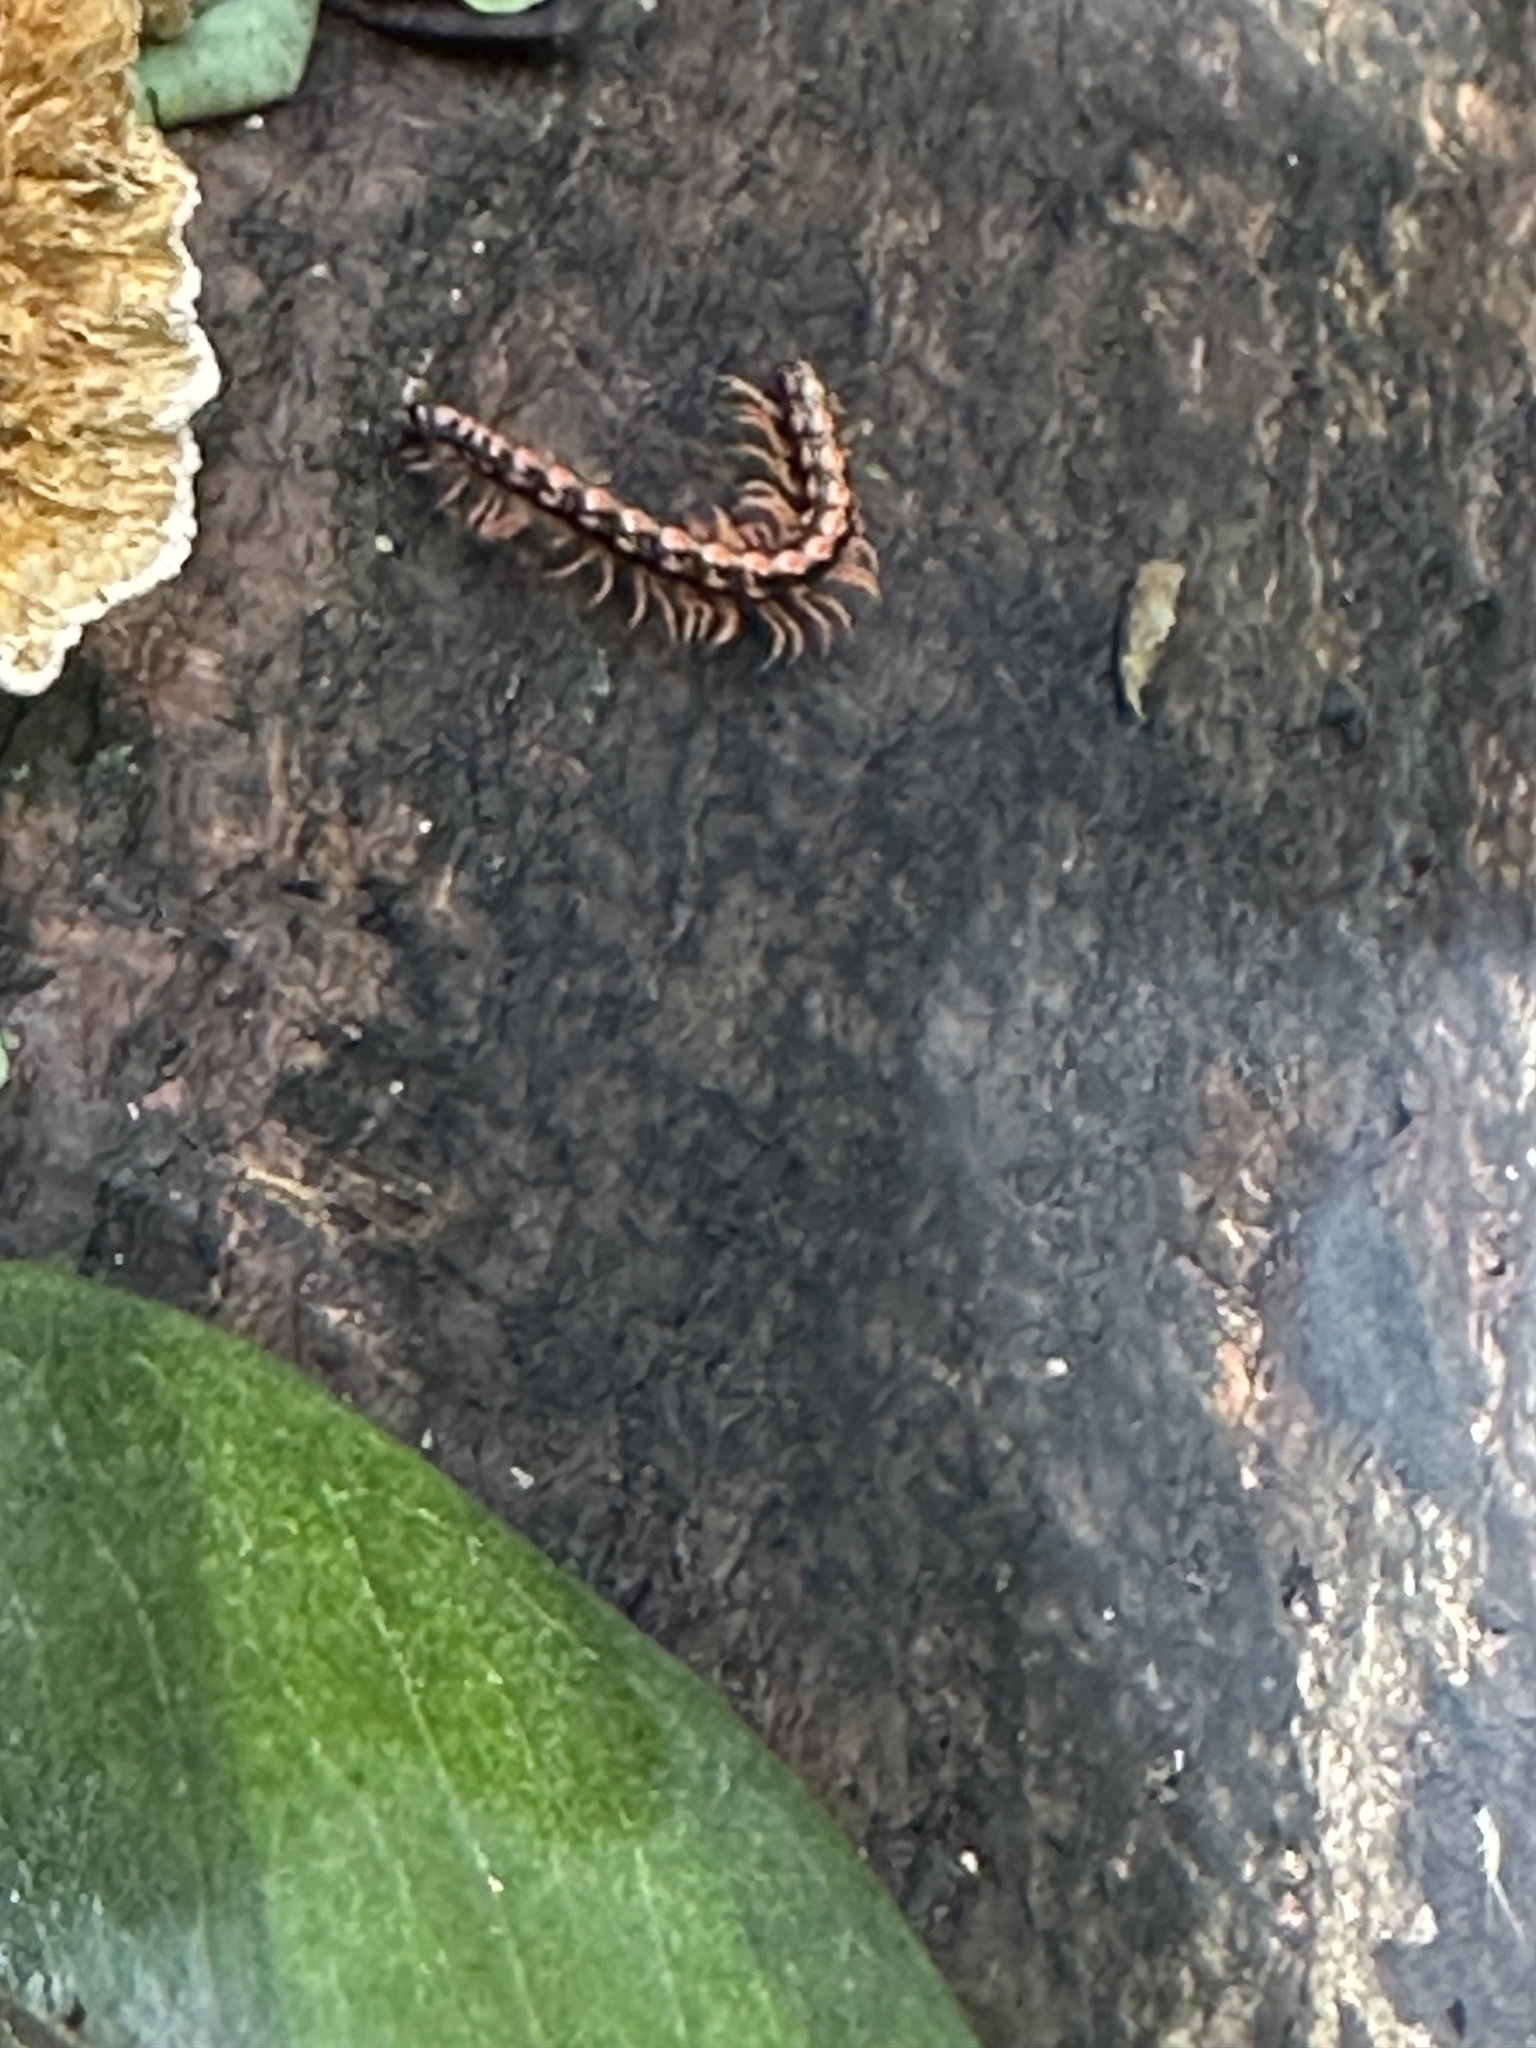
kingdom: Animalia
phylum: Arthropoda
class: Diplopoda
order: Polydesmida
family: Paradoxosomatidae
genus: Helicorthomorpha
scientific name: Helicorthomorpha holstii
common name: Millipede
